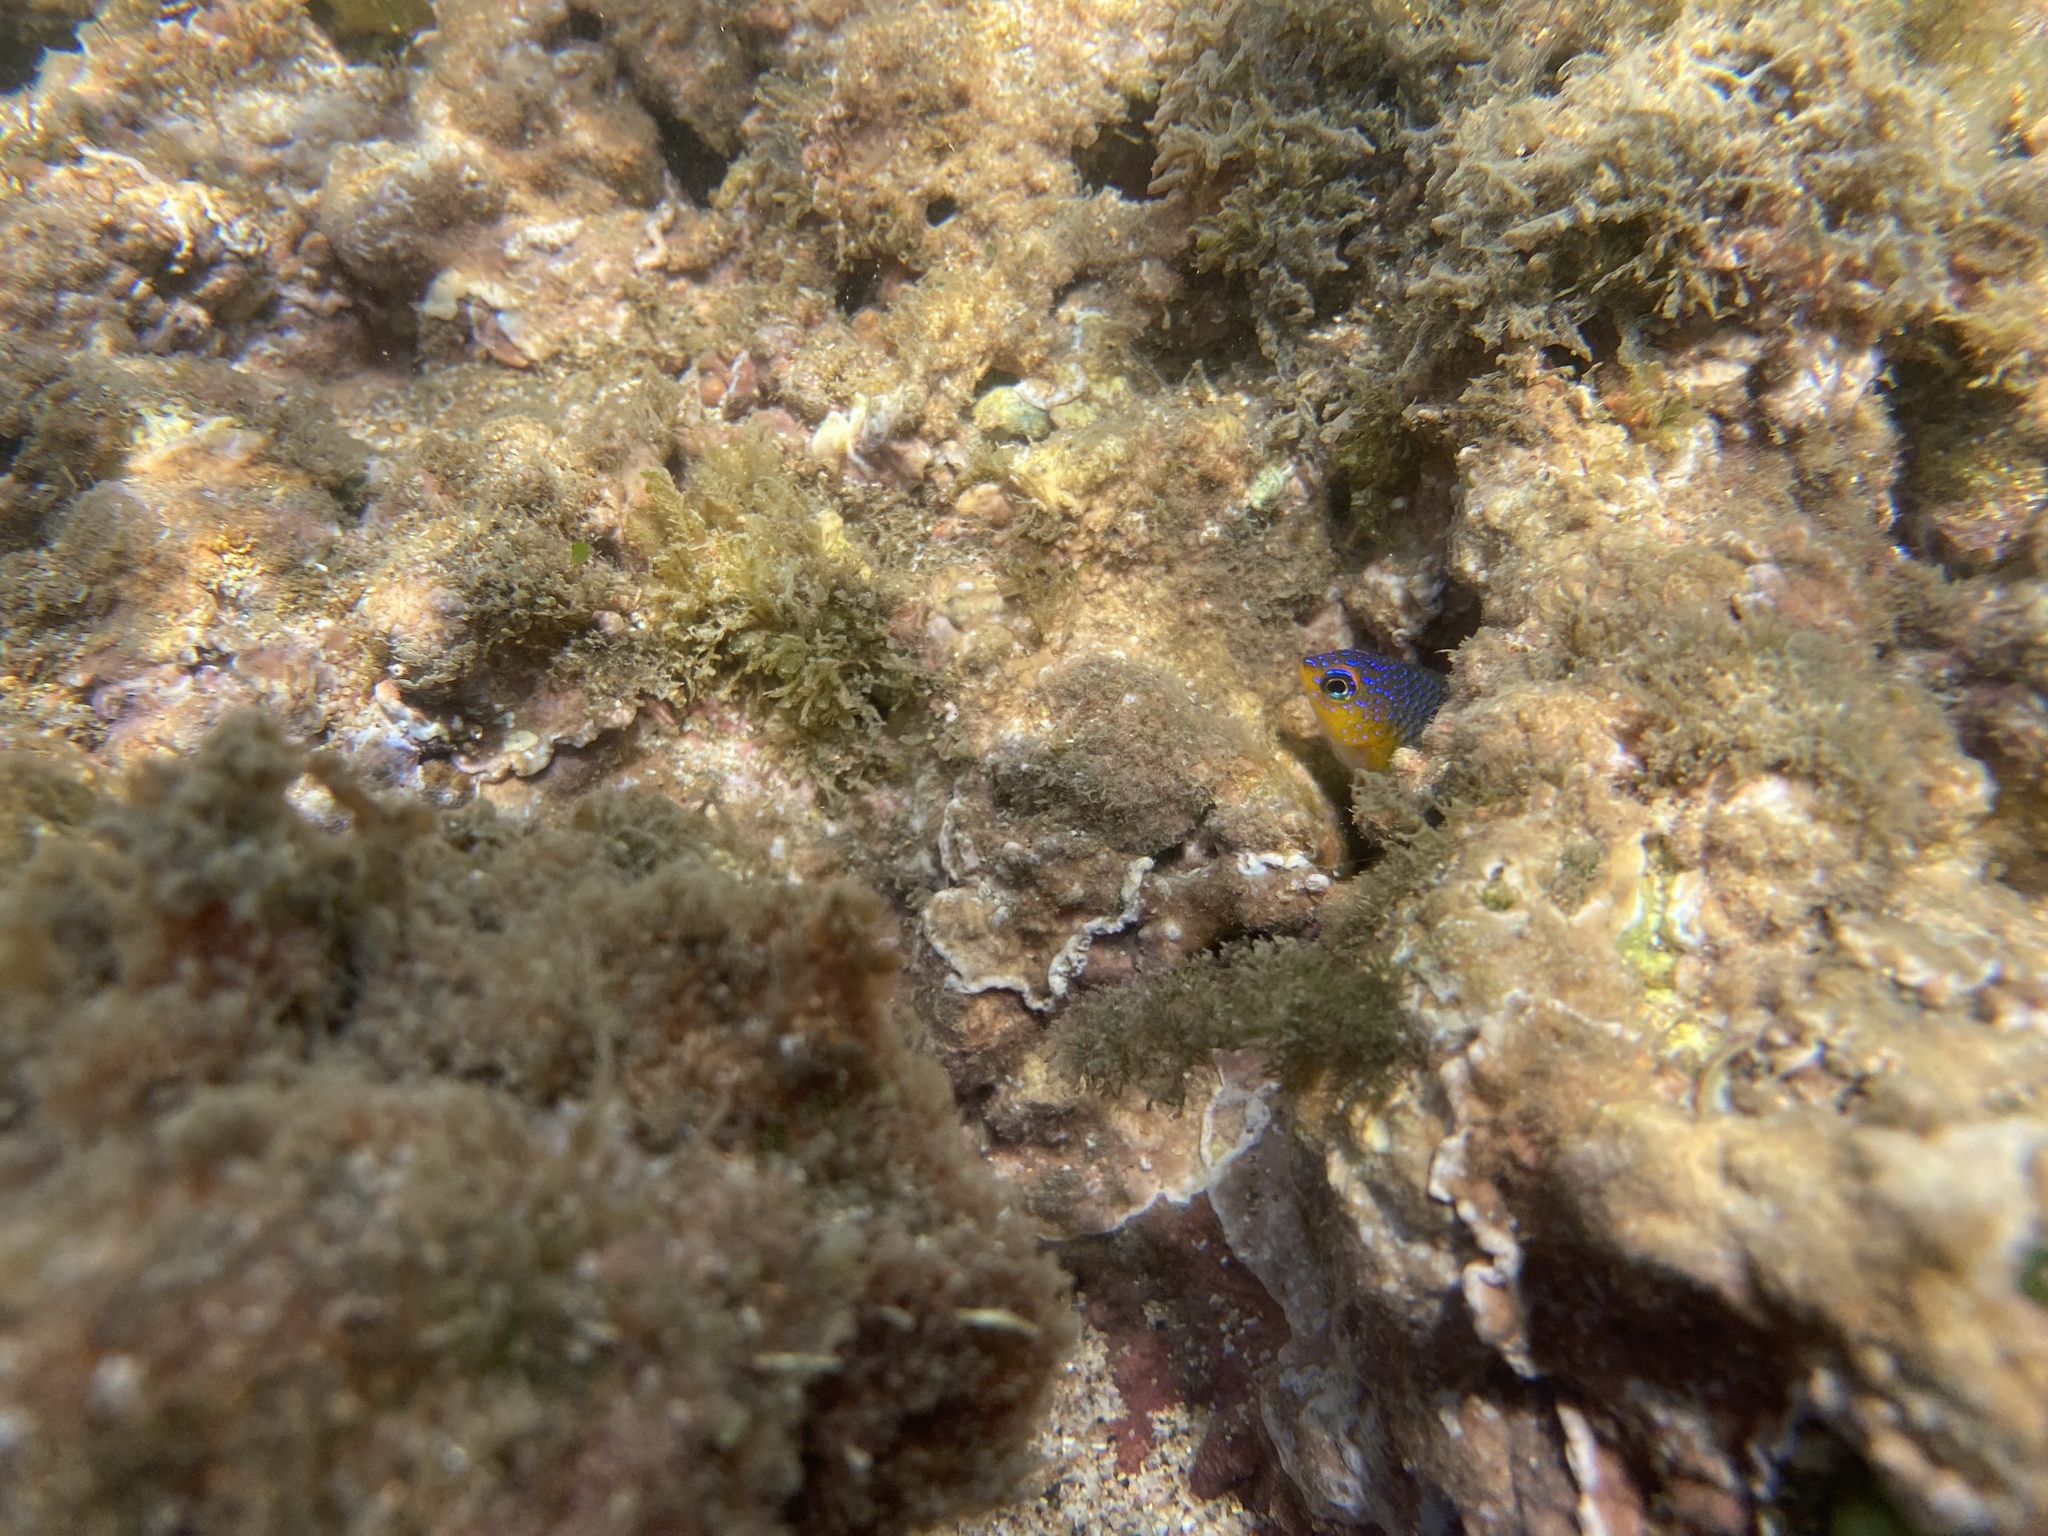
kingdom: Animalia
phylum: Chordata
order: Perciformes
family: Pomacentridae
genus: Stegastes
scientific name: Stegastes flavilatus
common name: Beaubrummel
